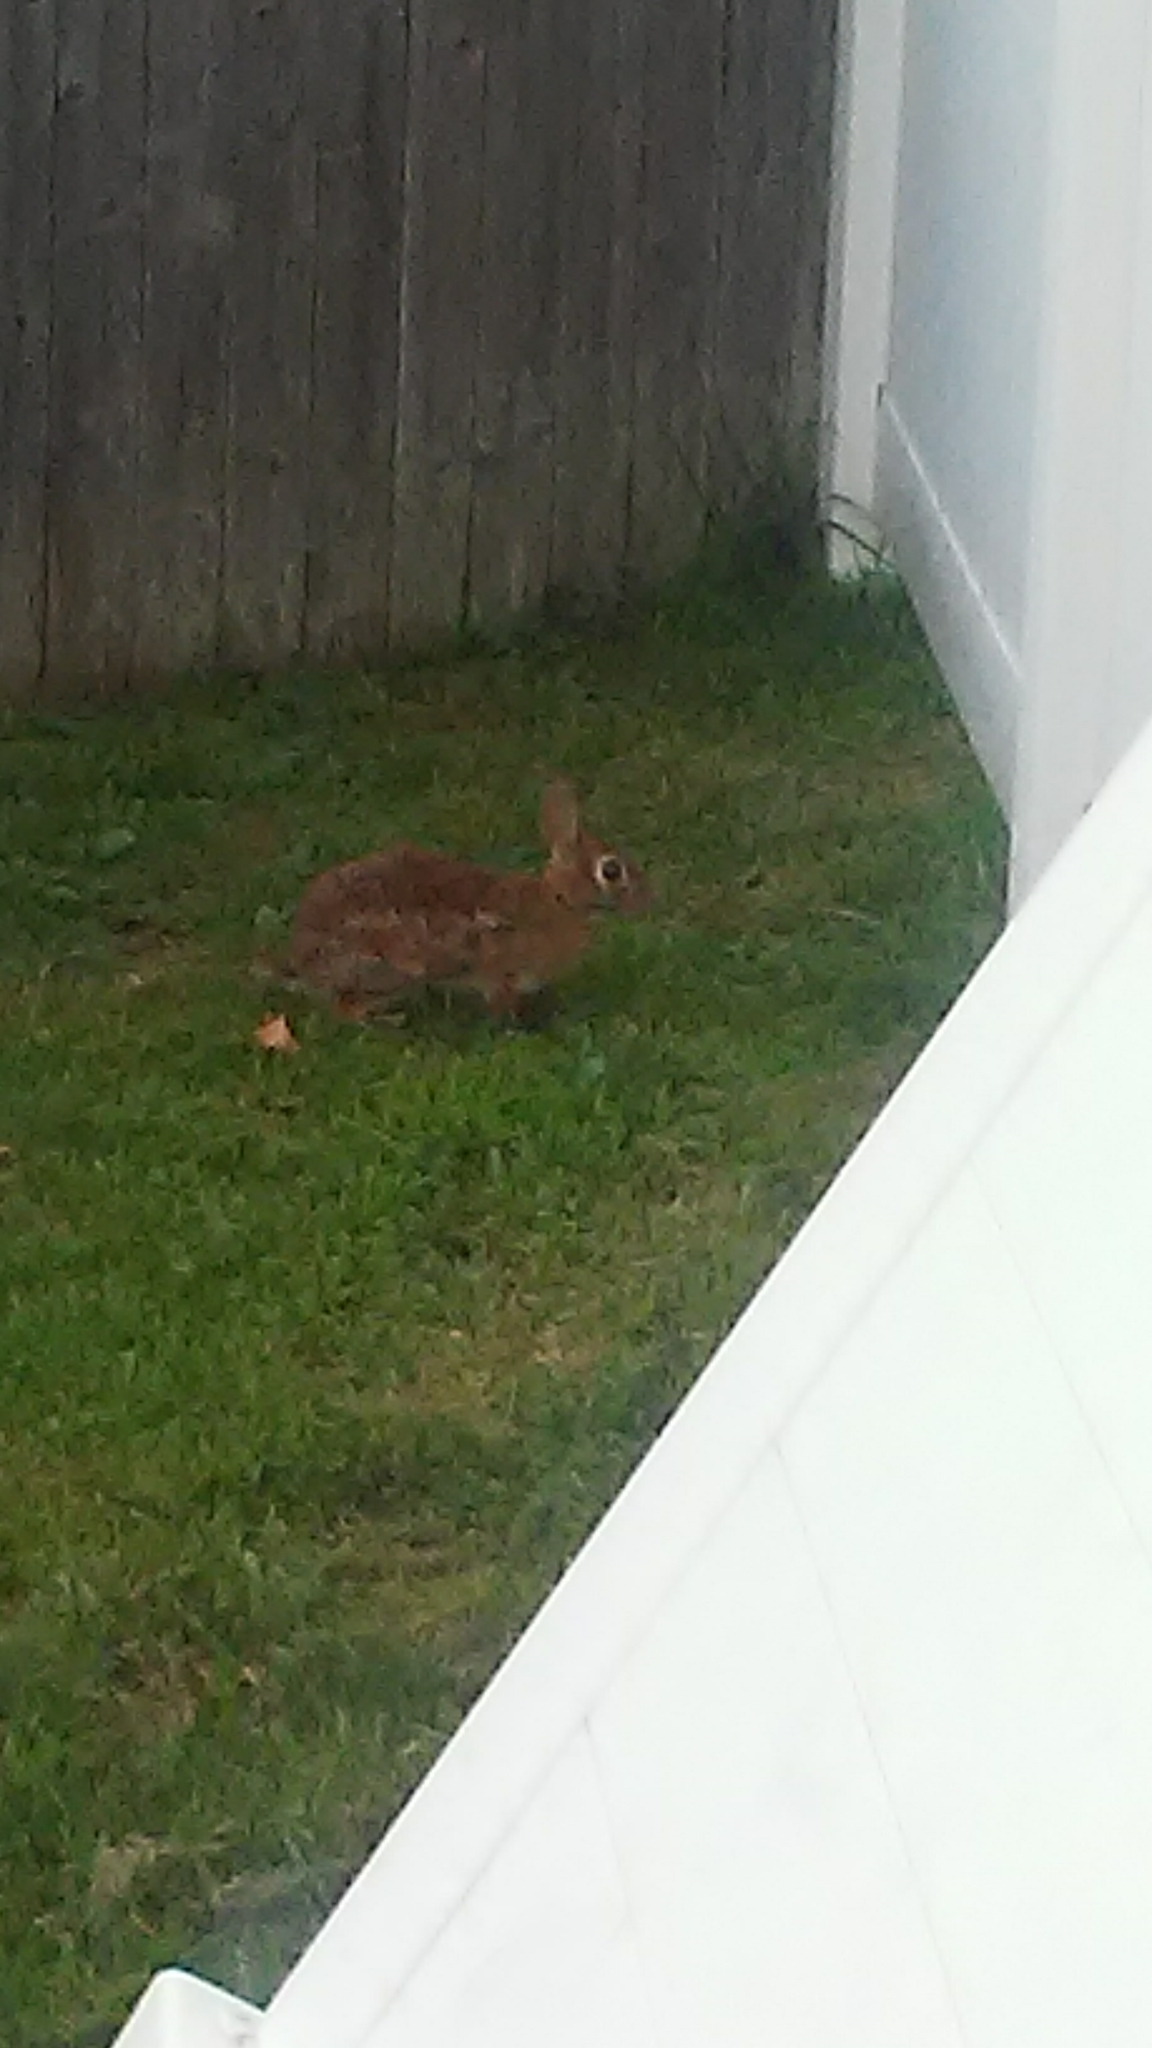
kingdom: Animalia
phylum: Chordata
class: Mammalia
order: Lagomorpha
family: Leporidae
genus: Sylvilagus
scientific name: Sylvilagus floridanus
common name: Eastern cottontail
